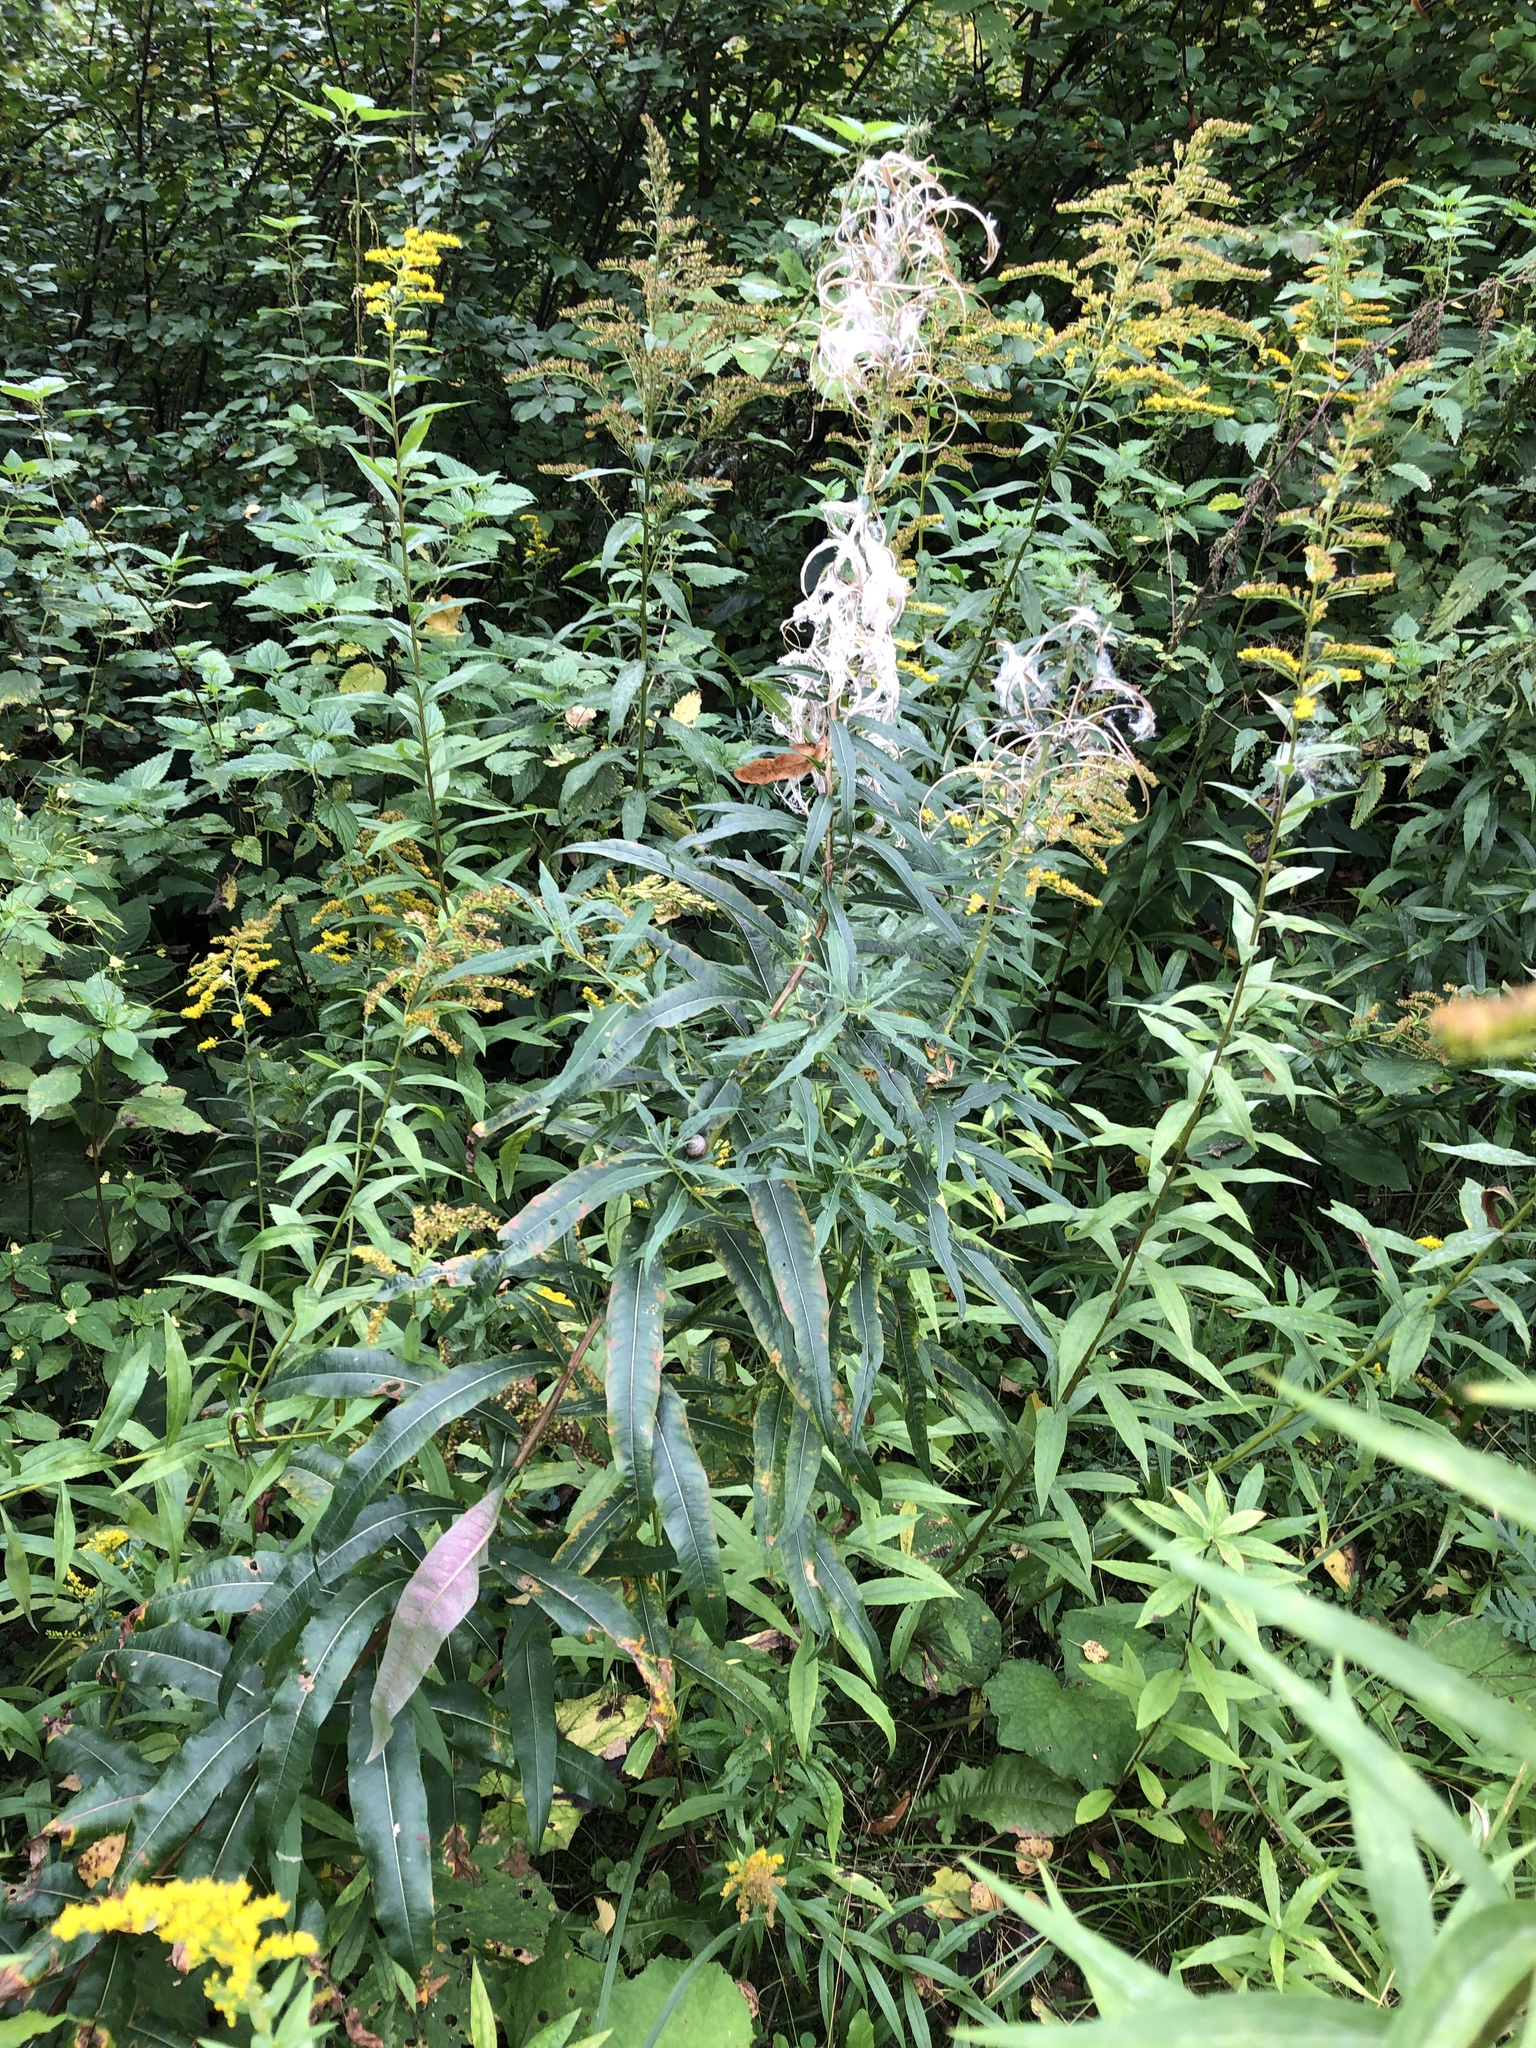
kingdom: Plantae
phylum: Tracheophyta
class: Magnoliopsida
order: Myrtales
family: Onagraceae
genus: Chamaenerion
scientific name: Chamaenerion angustifolium
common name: Fireweed
